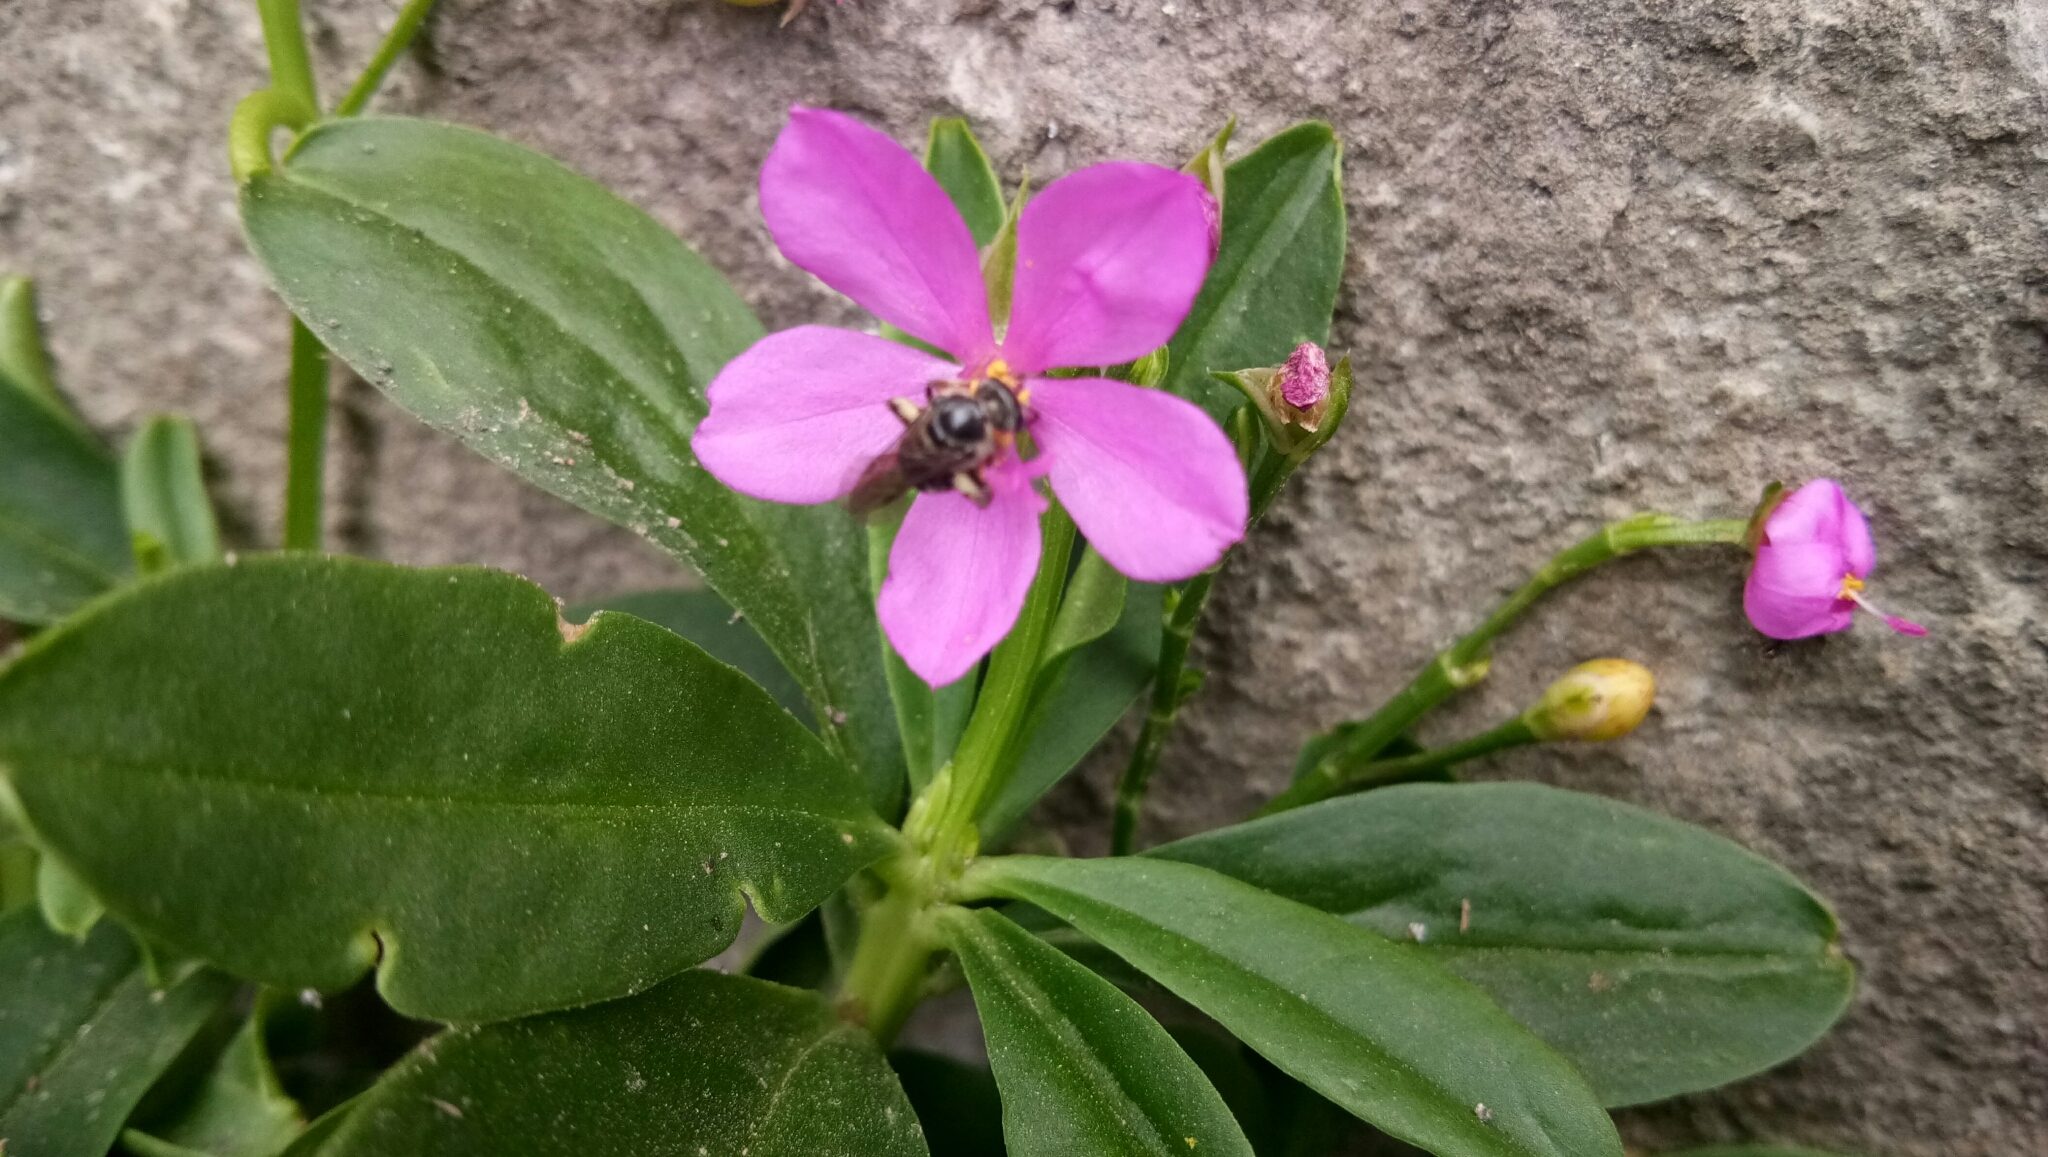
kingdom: Plantae
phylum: Tracheophyta
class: Magnoliopsida
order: Caryophyllales
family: Talinaceae
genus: Talinum
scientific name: Talinum fruticosum
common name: Verdolaga-francesa
